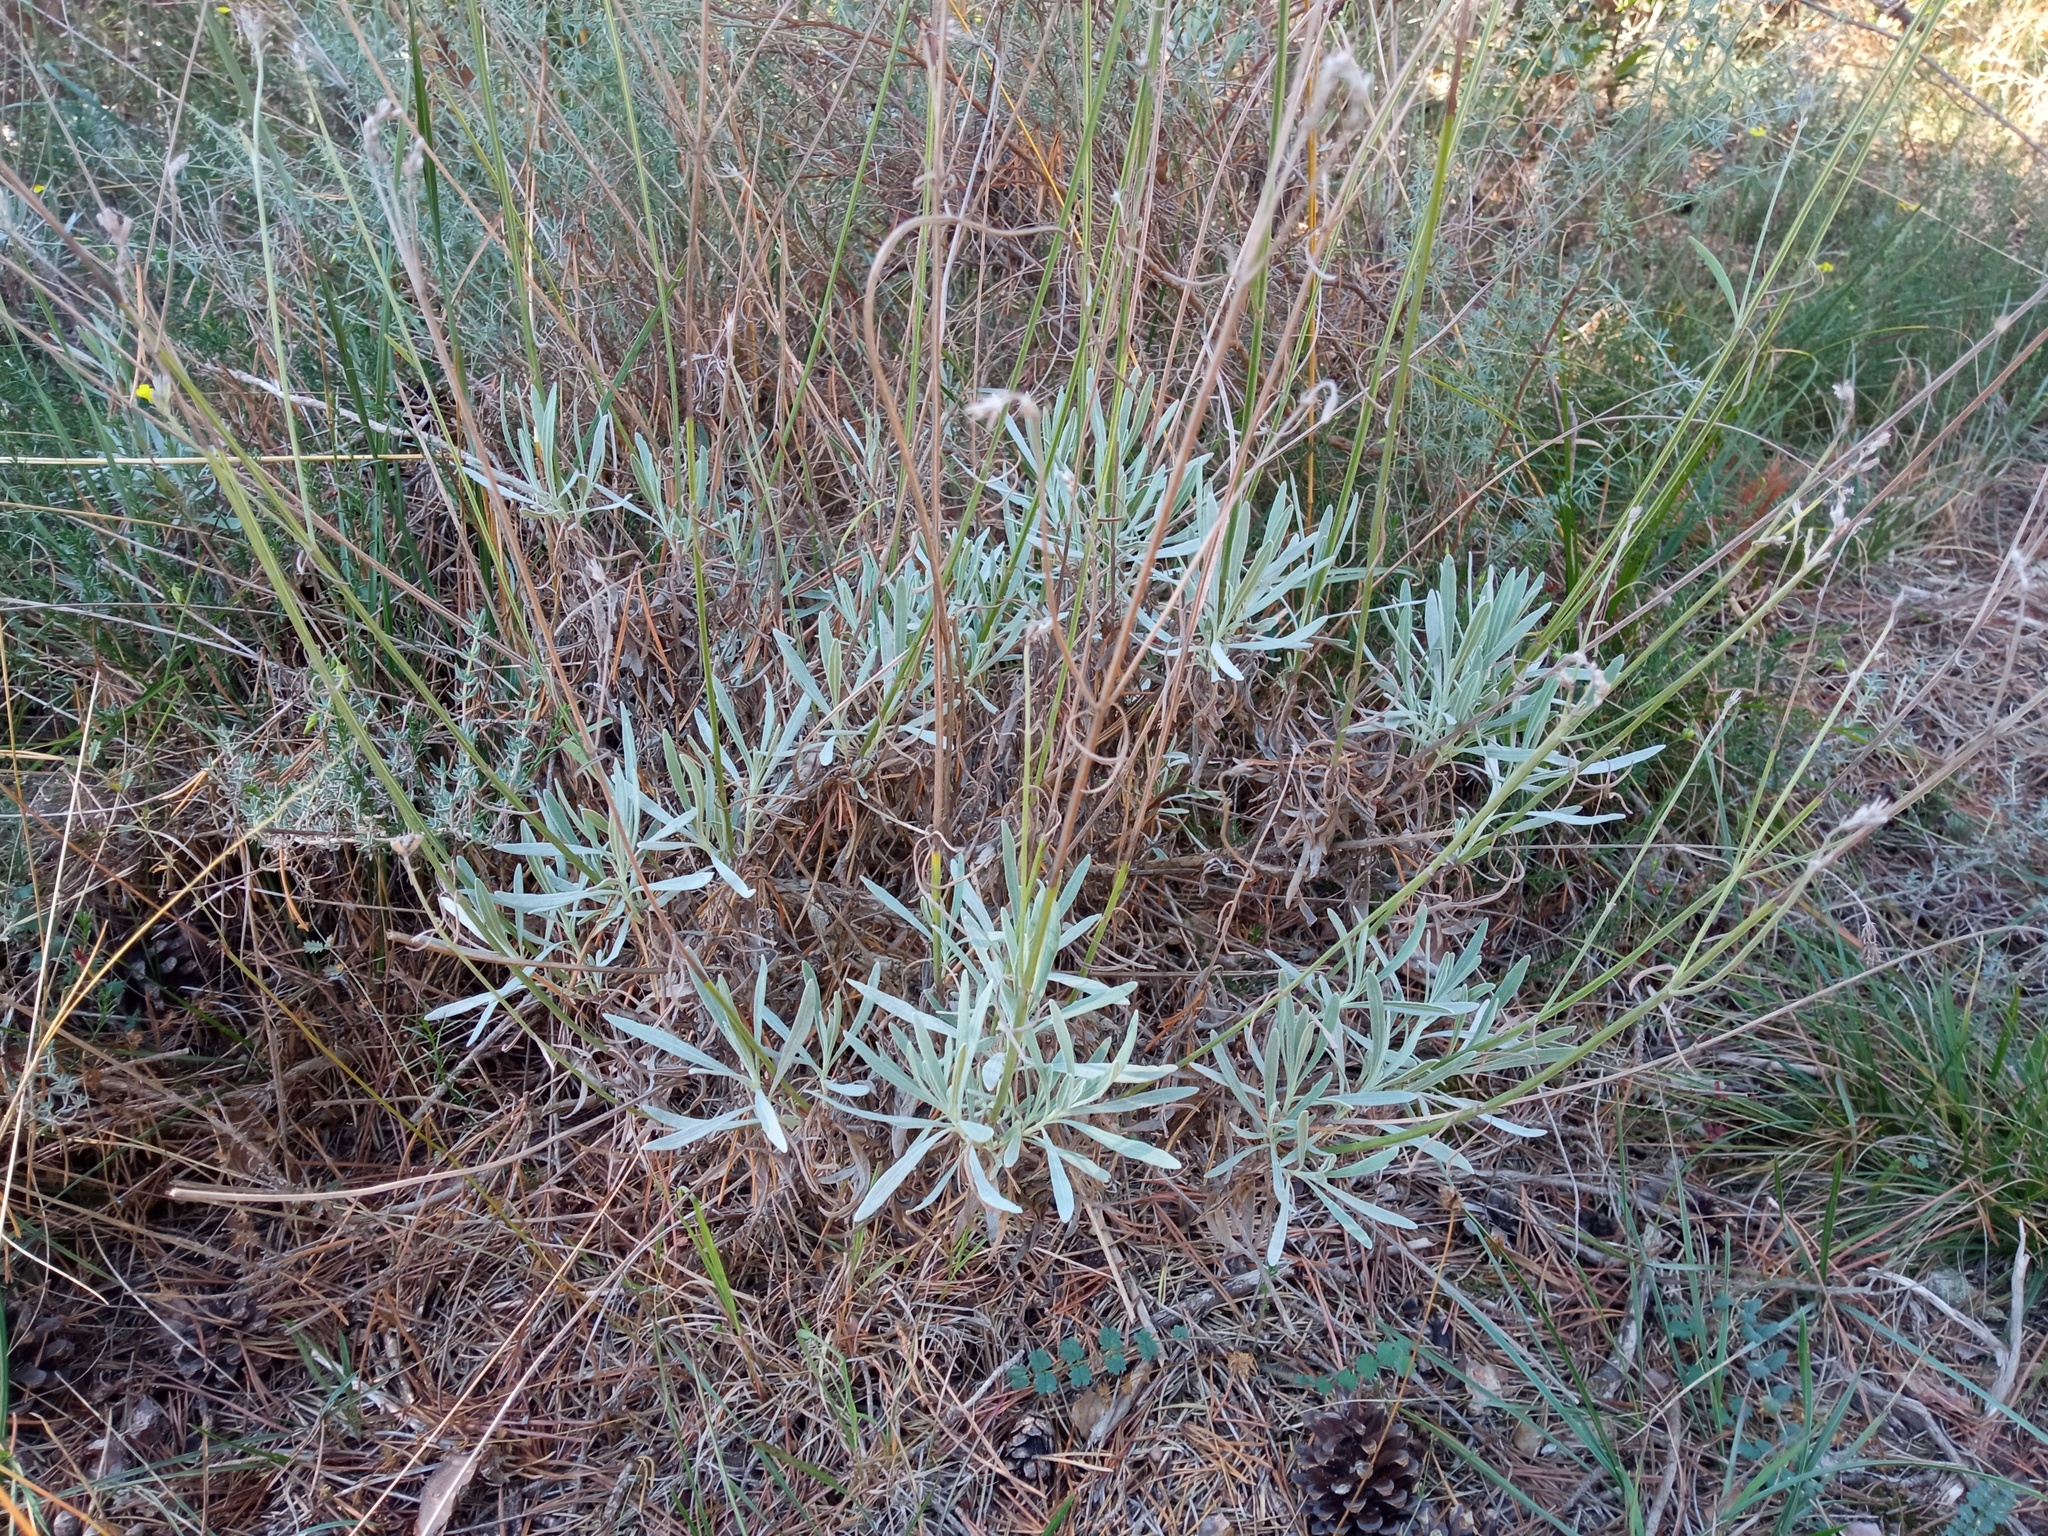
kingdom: Plantae
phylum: Tracheophyta
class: Magnoliopsida
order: Lamiales
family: Lamiaceae
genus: Lavandula
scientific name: Lavandula latifolia
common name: Spike lavendar
